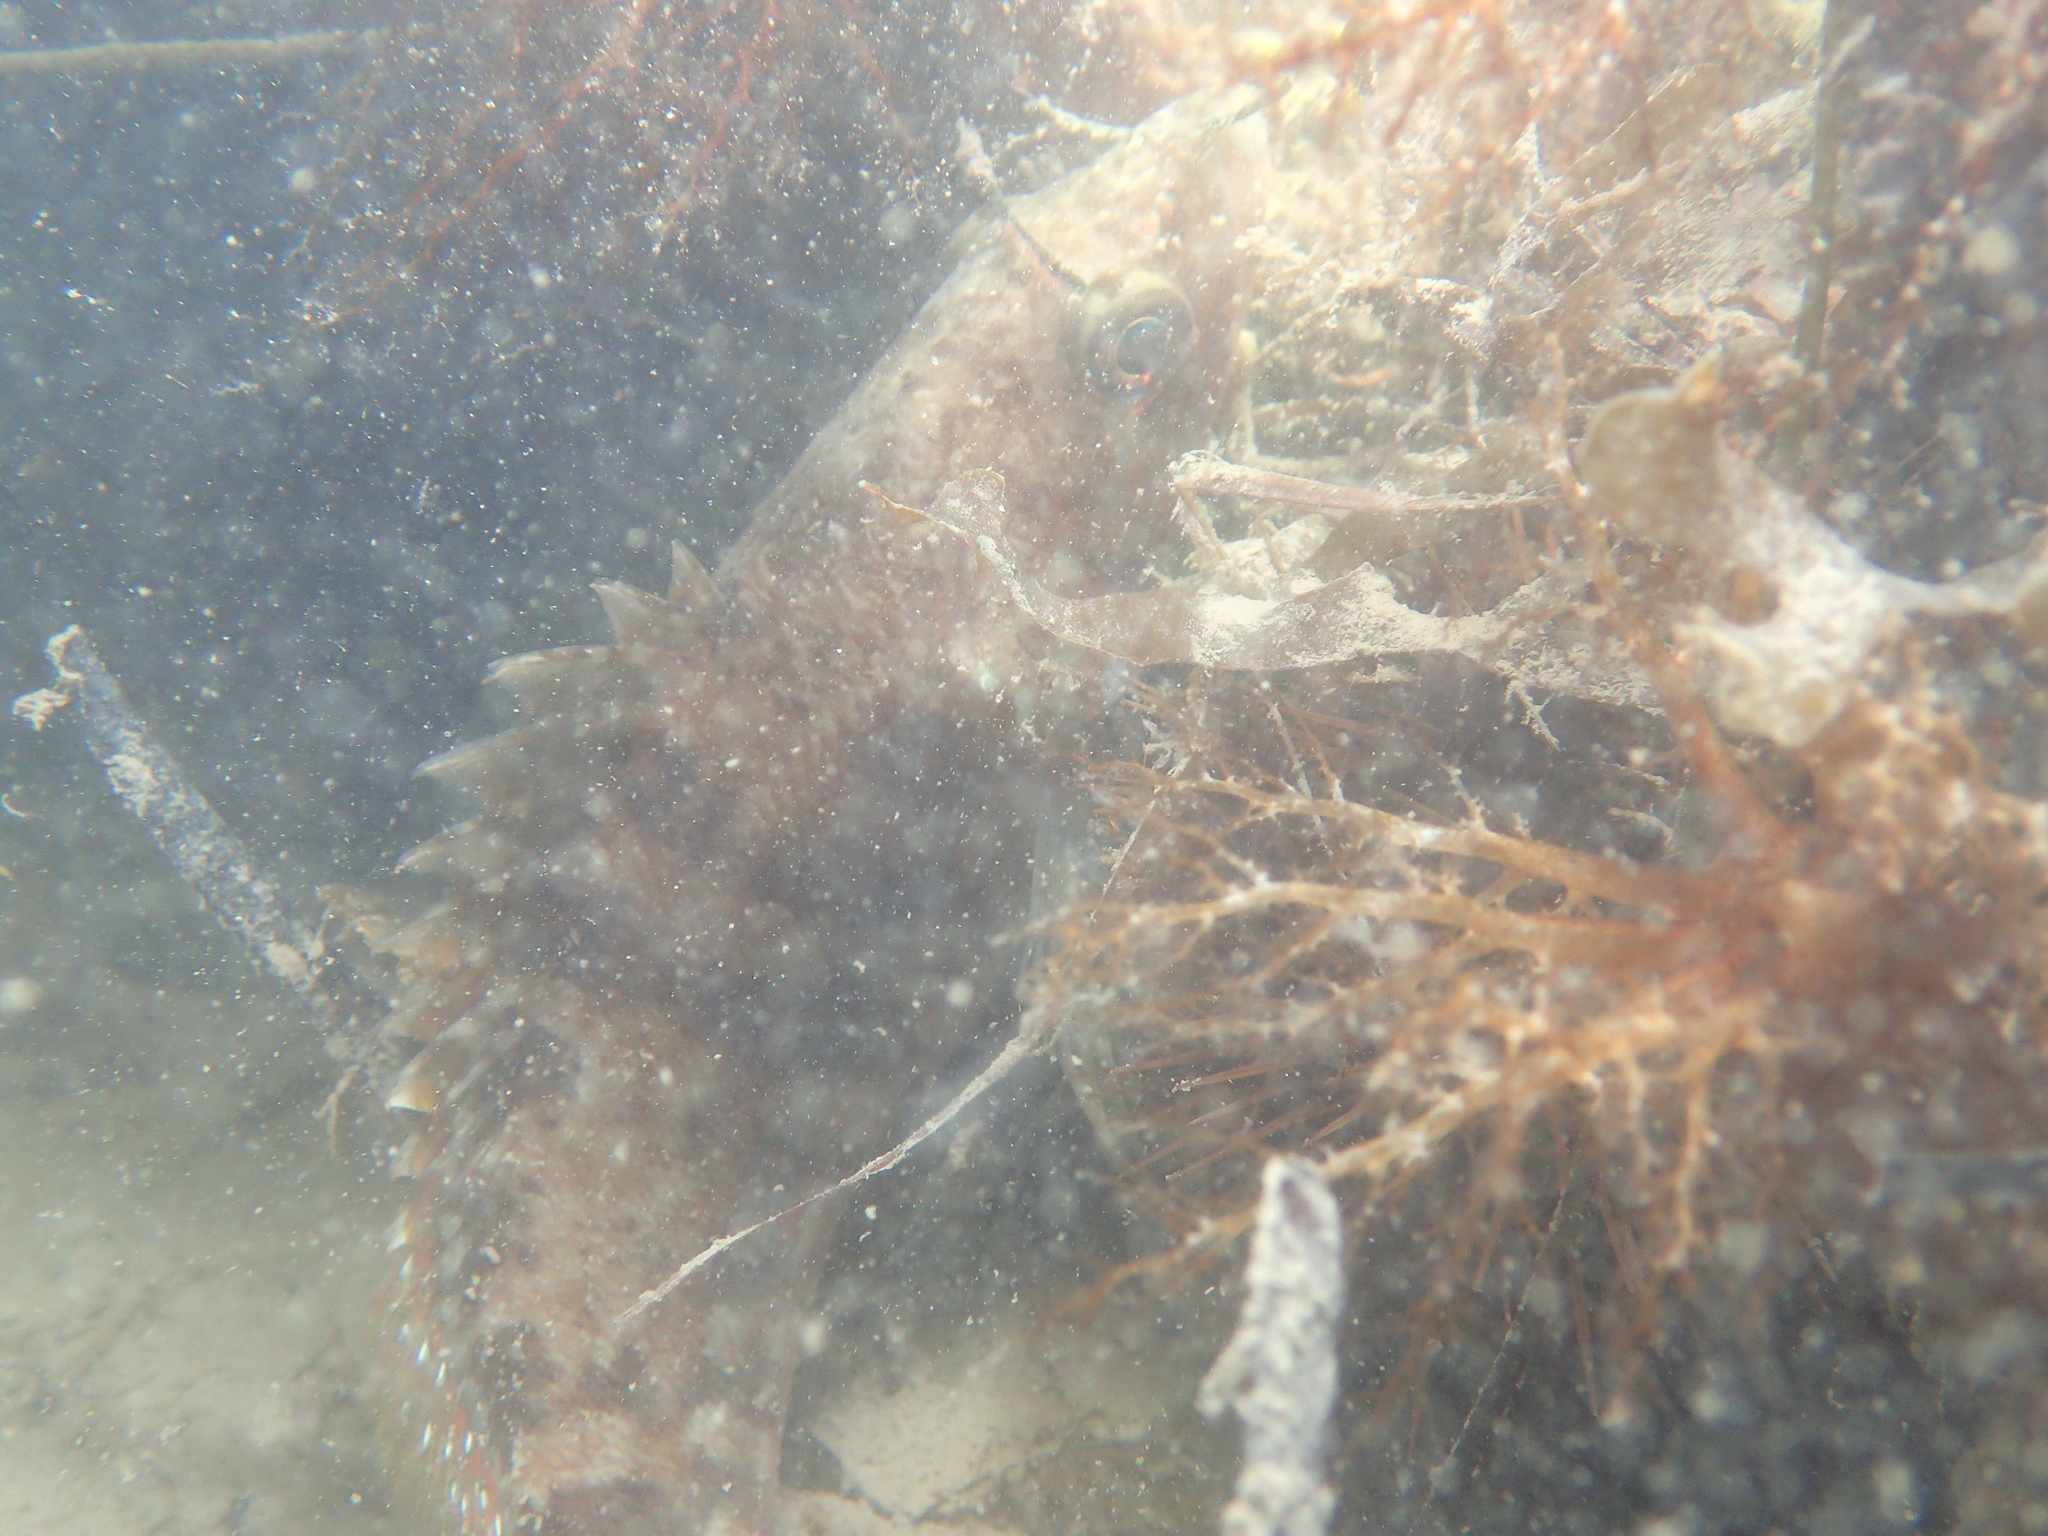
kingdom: Animalia
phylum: Chordata
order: Perciformes
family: Serranidae
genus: Serranus
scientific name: Serranus cabrilla
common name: Comber
